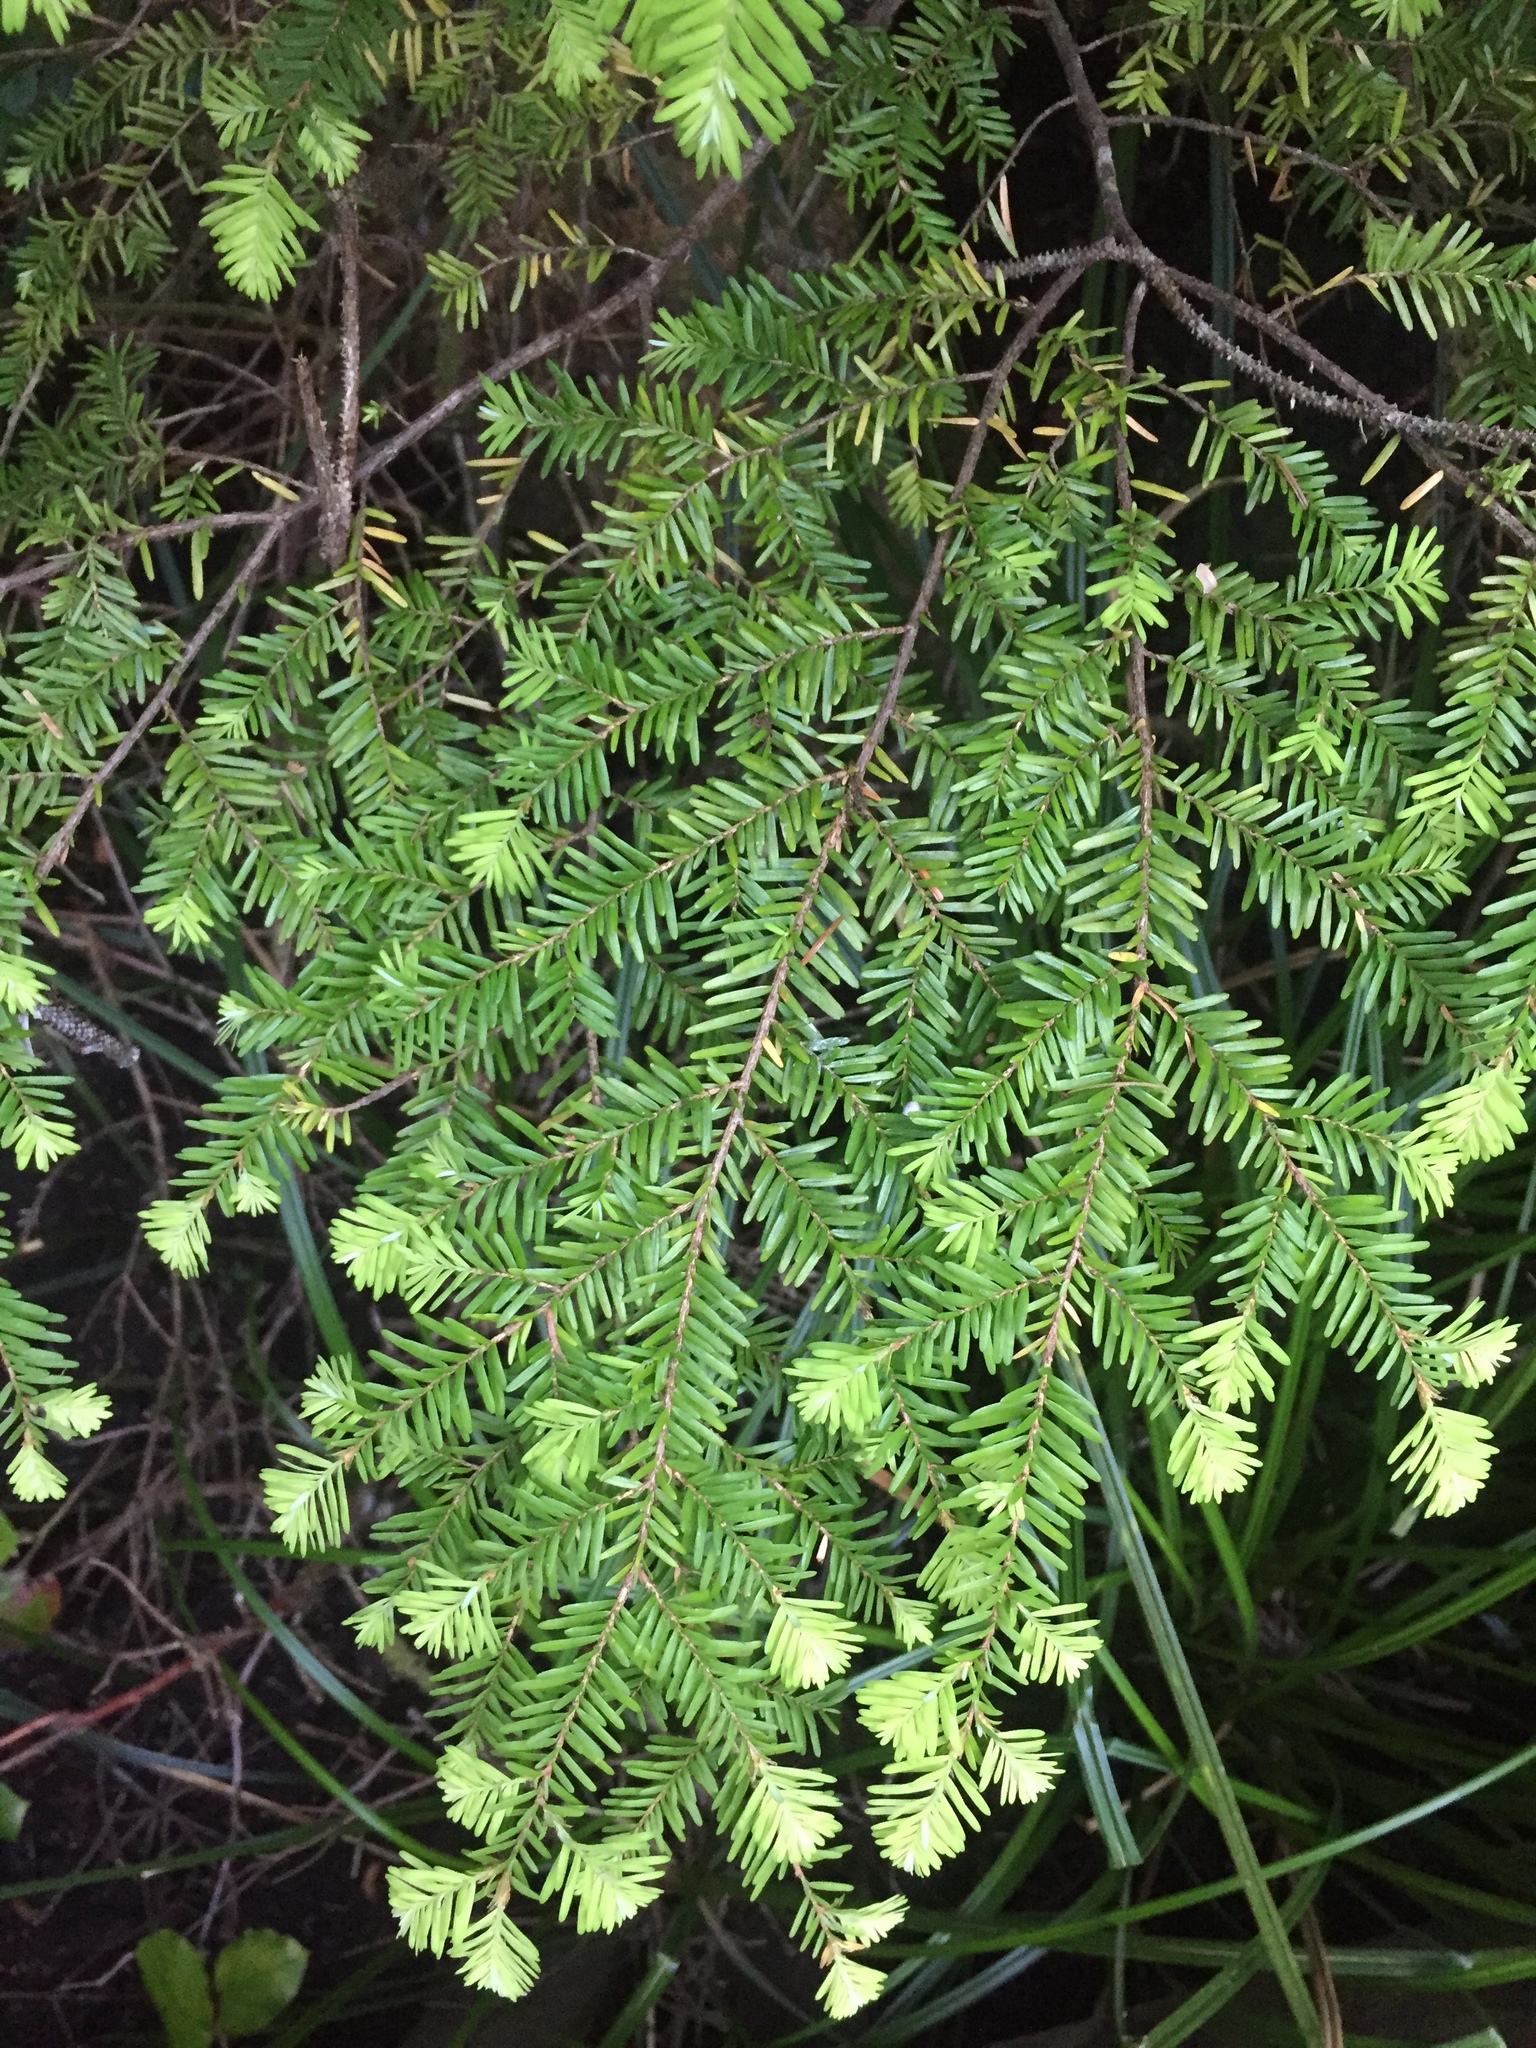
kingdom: Plantae
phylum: Tracheophyta
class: Pinopsida
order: Pinales
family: Pinaceae
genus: Tsuga
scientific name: Tsuga heterophylla
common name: Western hemlock
